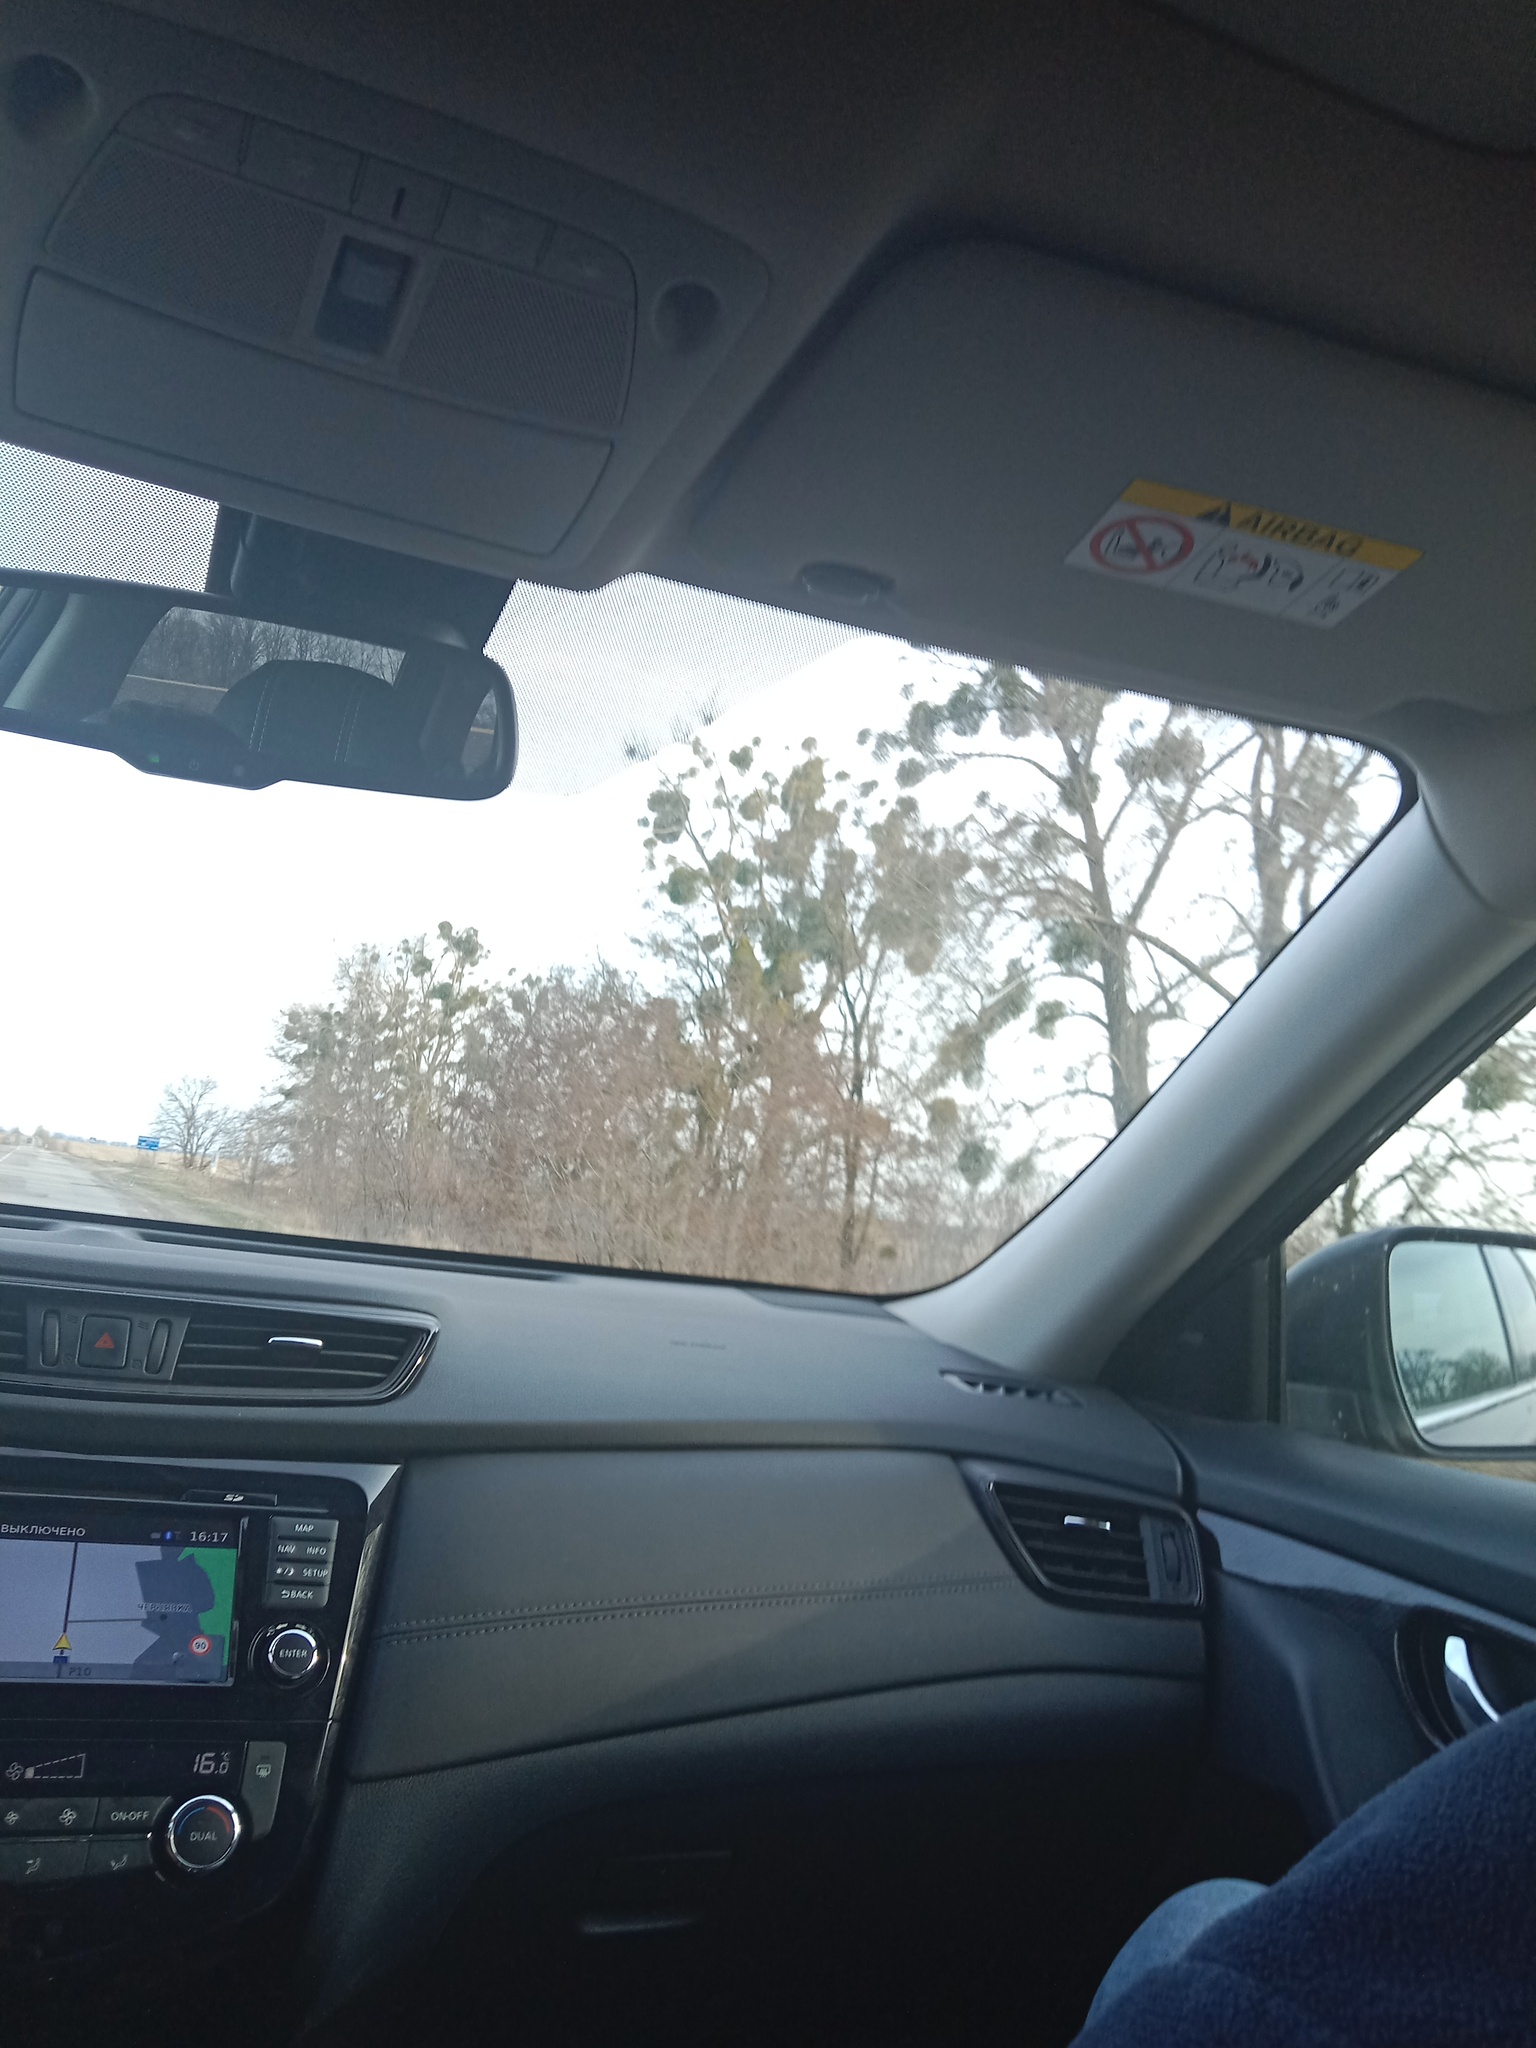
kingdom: Plantae
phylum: Tracheophyta
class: Magnoliopsida
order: Santalales
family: Viscaceae
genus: Viscum
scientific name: Viscum album
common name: Mistletoe
